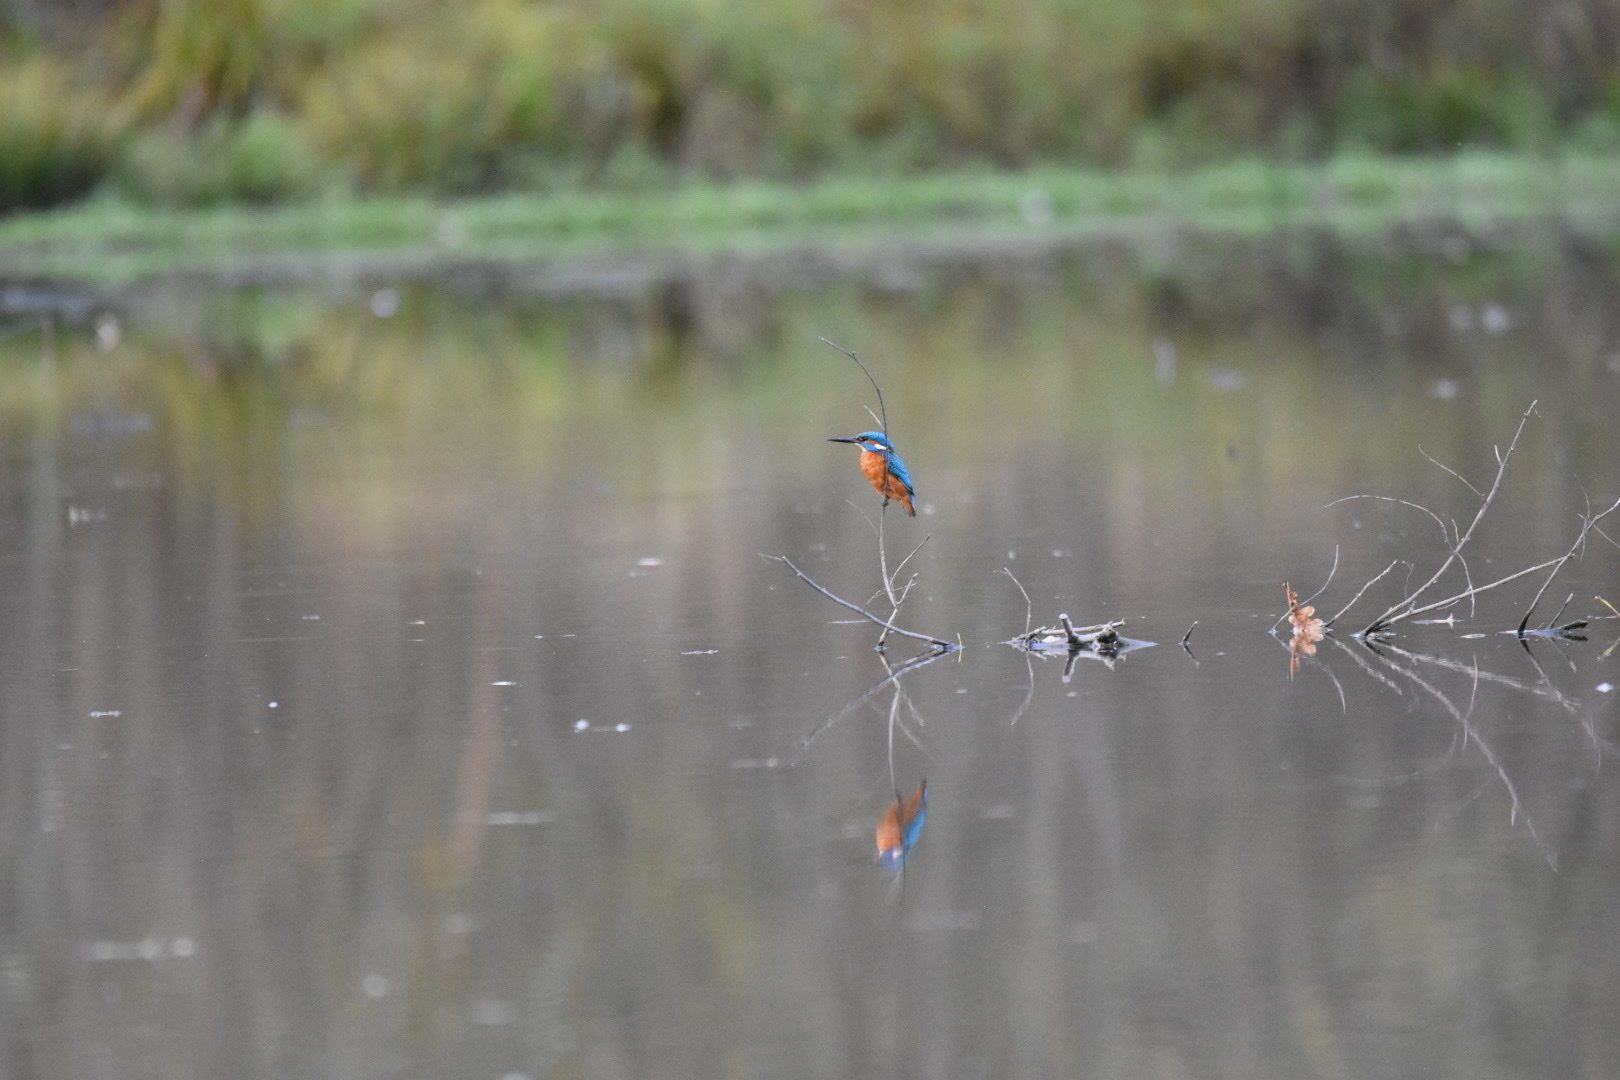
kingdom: Animalia
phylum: Chordata
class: Aves
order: Coraciiformes
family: Alcedinidae
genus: Alcedo
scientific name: Alcedo atthis
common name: Common kingfisher
